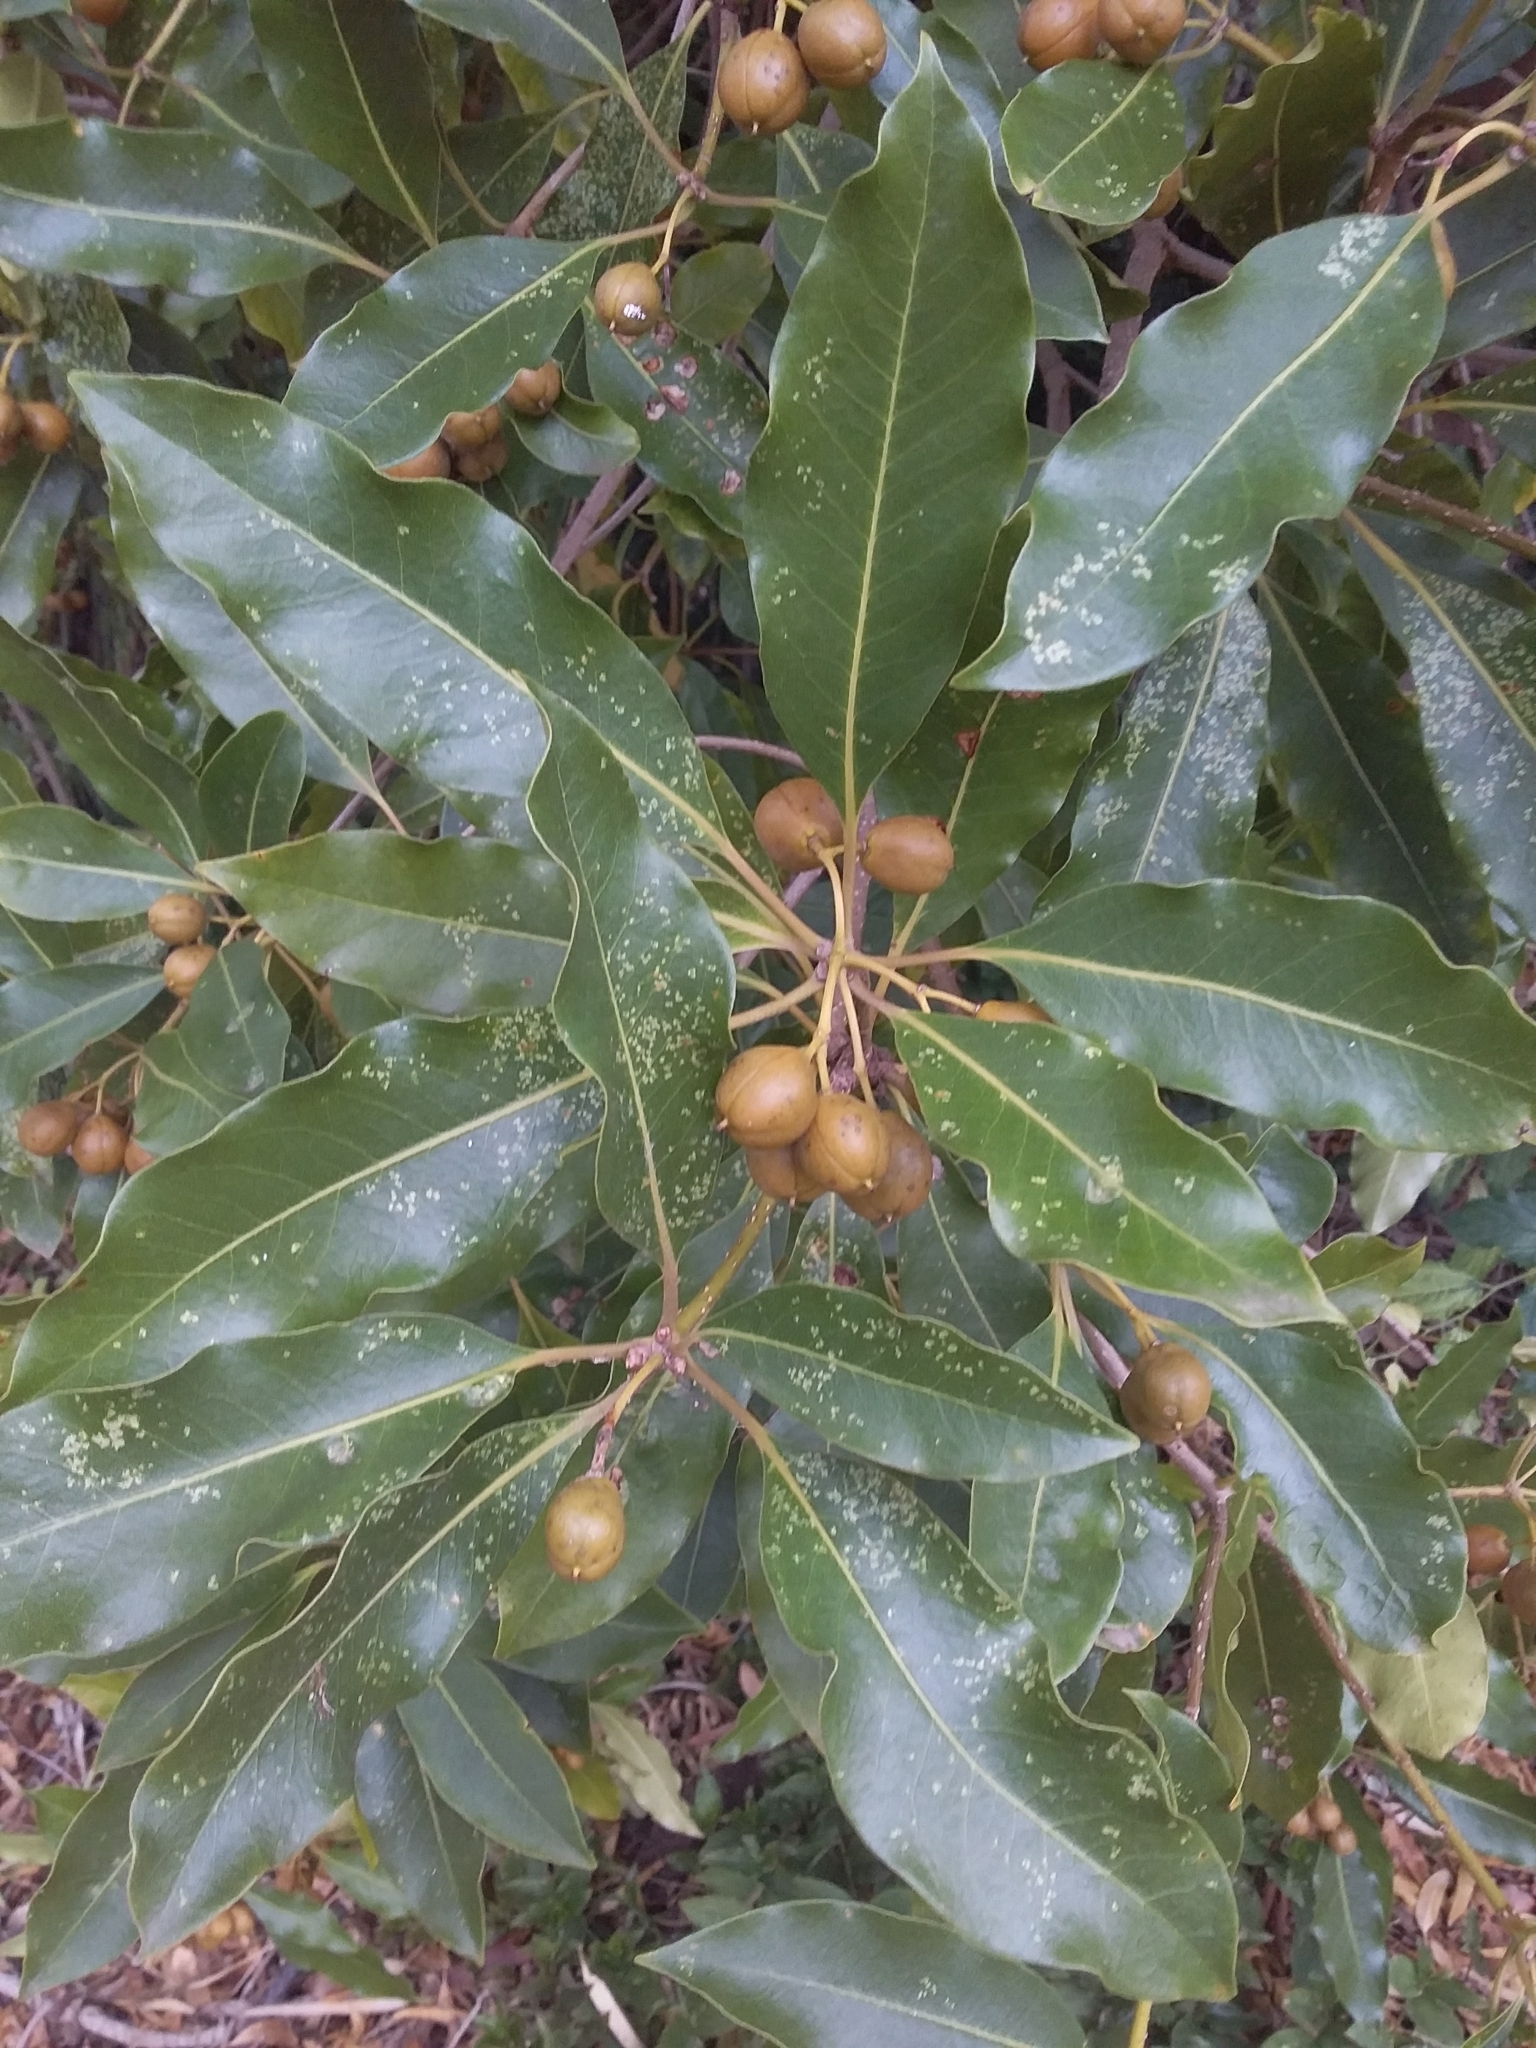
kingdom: Plantae
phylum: Tracheophyta
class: Magnoliopsida
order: Apiales
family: Pittosporaceae
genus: Pittosporum
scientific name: Pittosporum undulatum
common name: Australian cheesewood
